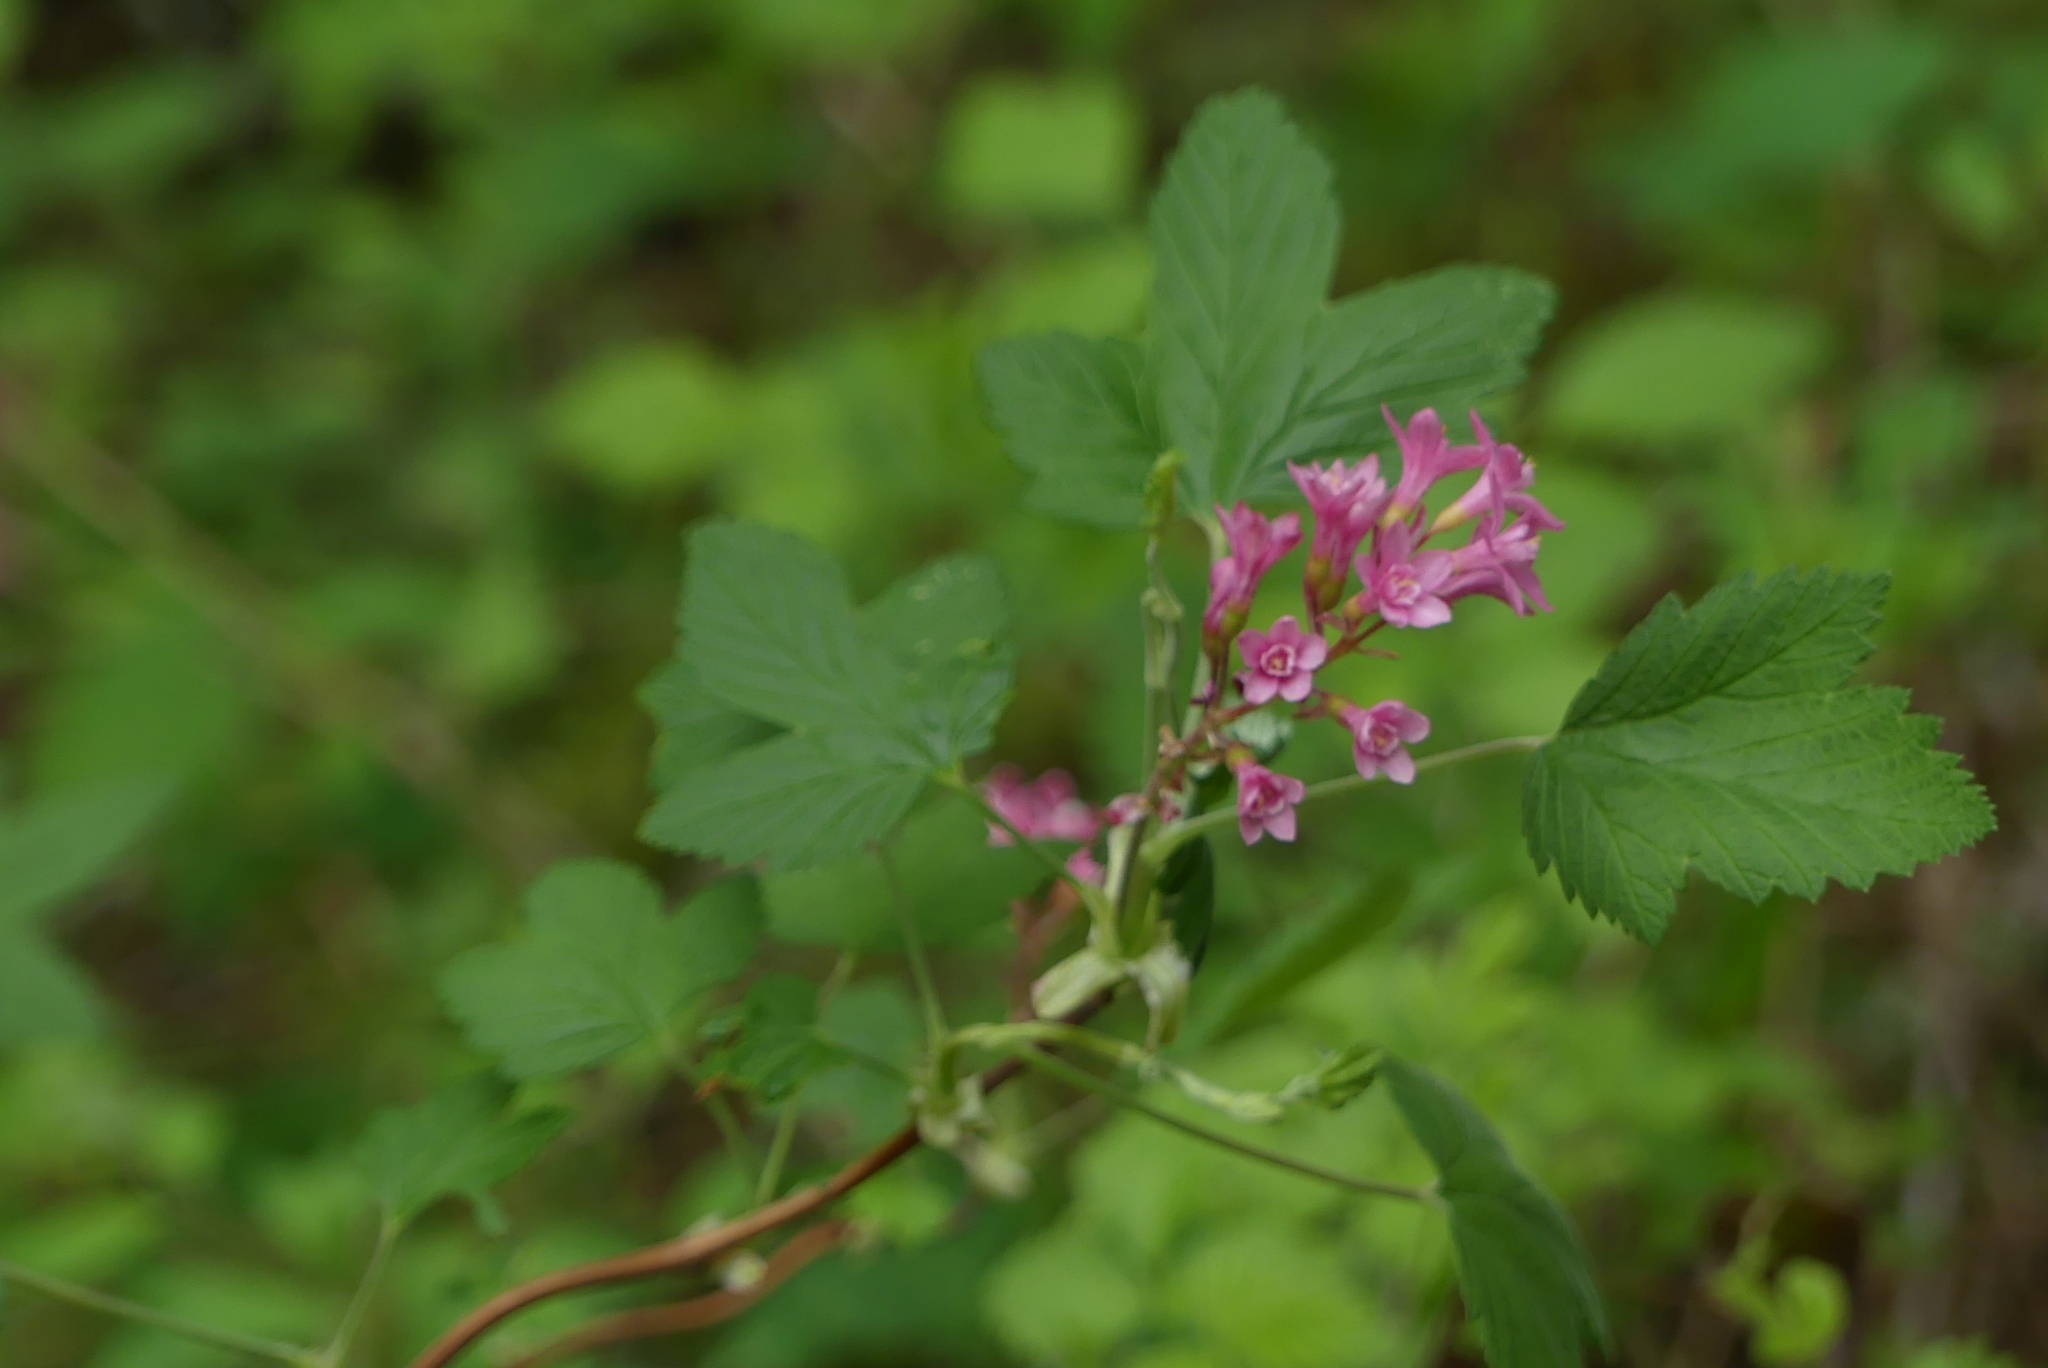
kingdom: Plantae
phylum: Tracheophyta
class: Magnoliopsida
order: Saxifragales
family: Grossulariaceae
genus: Ribes
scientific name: Ribes sanguineum
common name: Flowering currant
